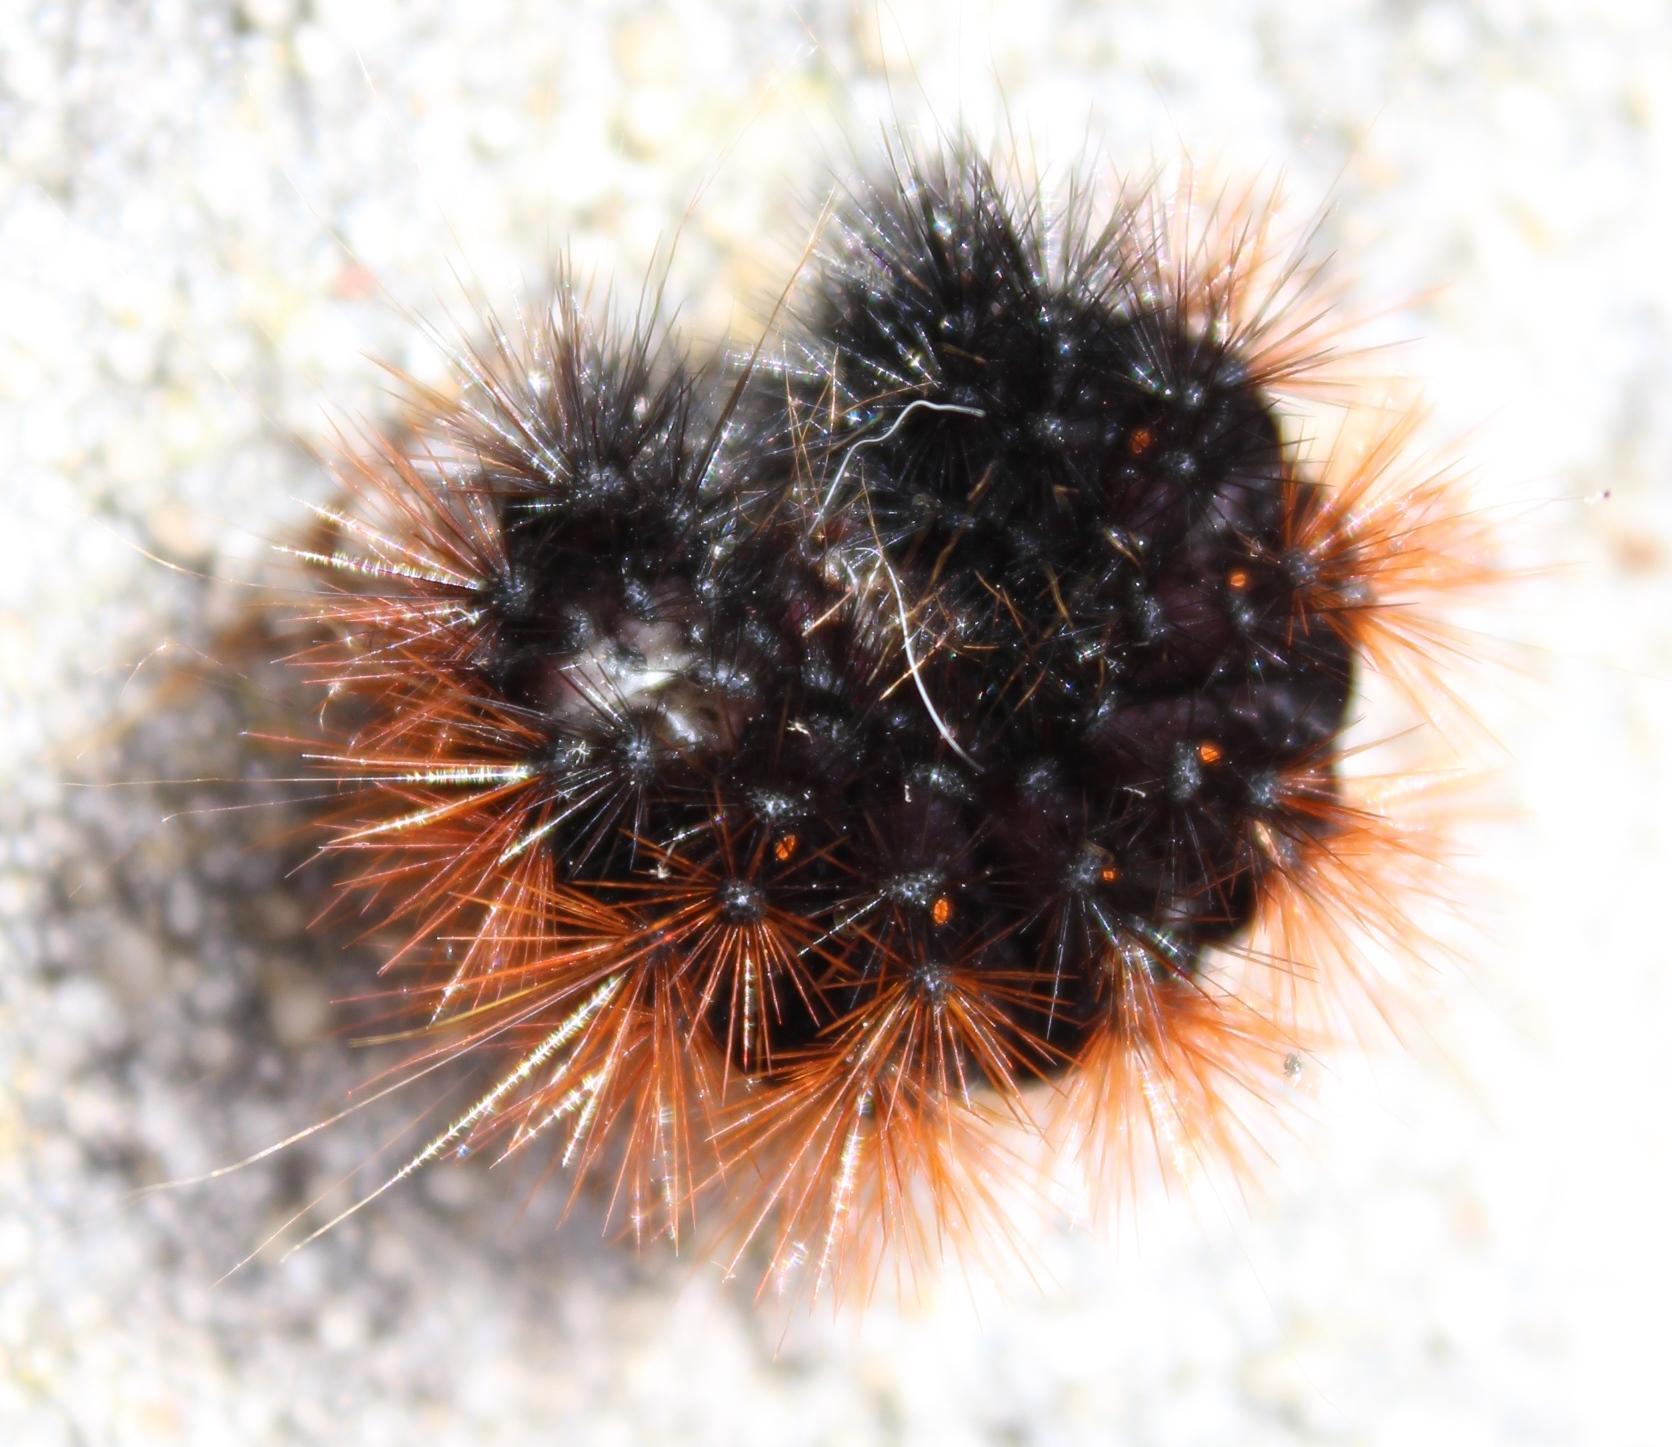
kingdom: Animalia
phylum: Arthropoda
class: Insecta
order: Lepidoptera
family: Erebidae
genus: Rhodogastria
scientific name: Rhodogastria amasis
